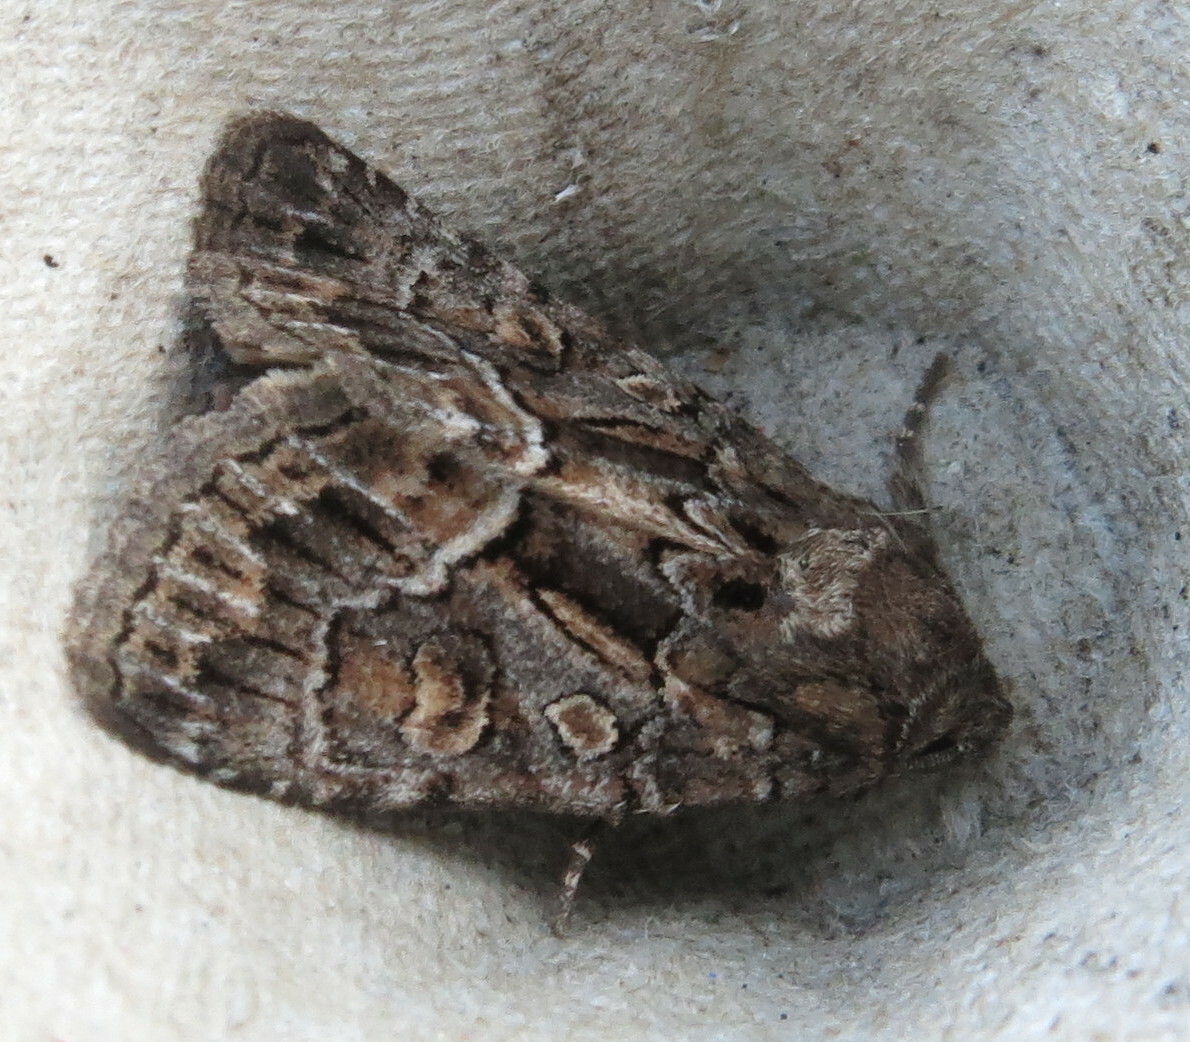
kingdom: Animalia
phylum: Arthropoda
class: Insecta
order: Lepidoptera
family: Noctuidae
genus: Thalpophila
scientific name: Thalpophila matura
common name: Straw underwing
